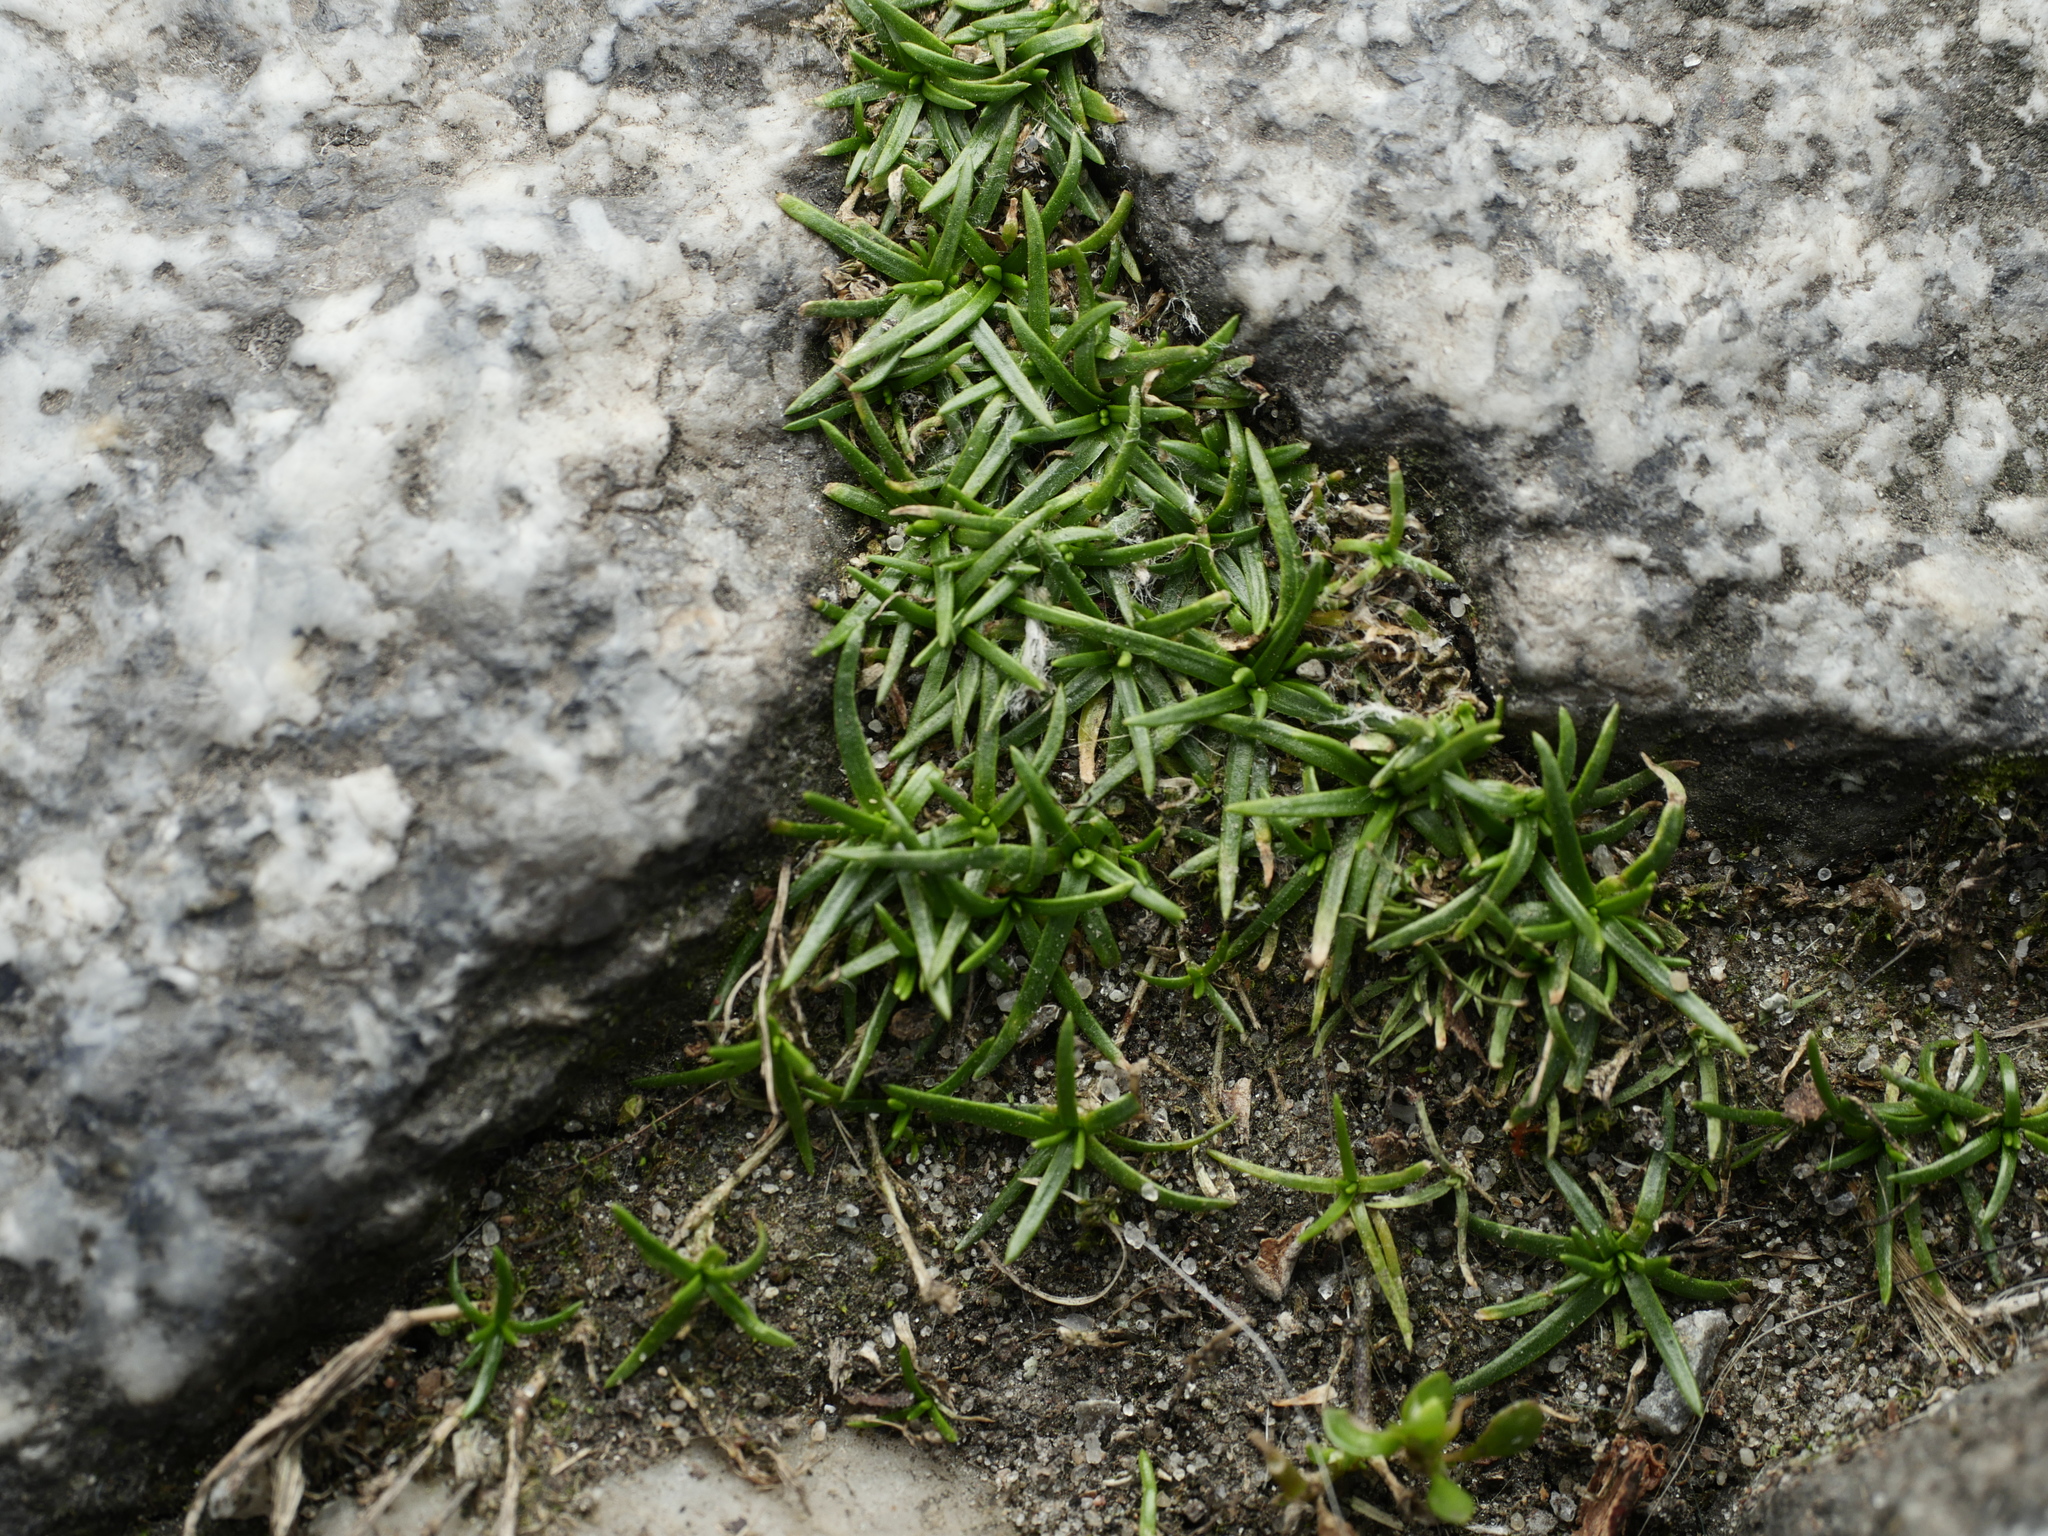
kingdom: Plantae
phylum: Tracheophyta
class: Magnoliopsida
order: Caryophyllales
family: Caryophyllaceae
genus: Sagina
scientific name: Sagina procumbens
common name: Procumbent pearlwort
